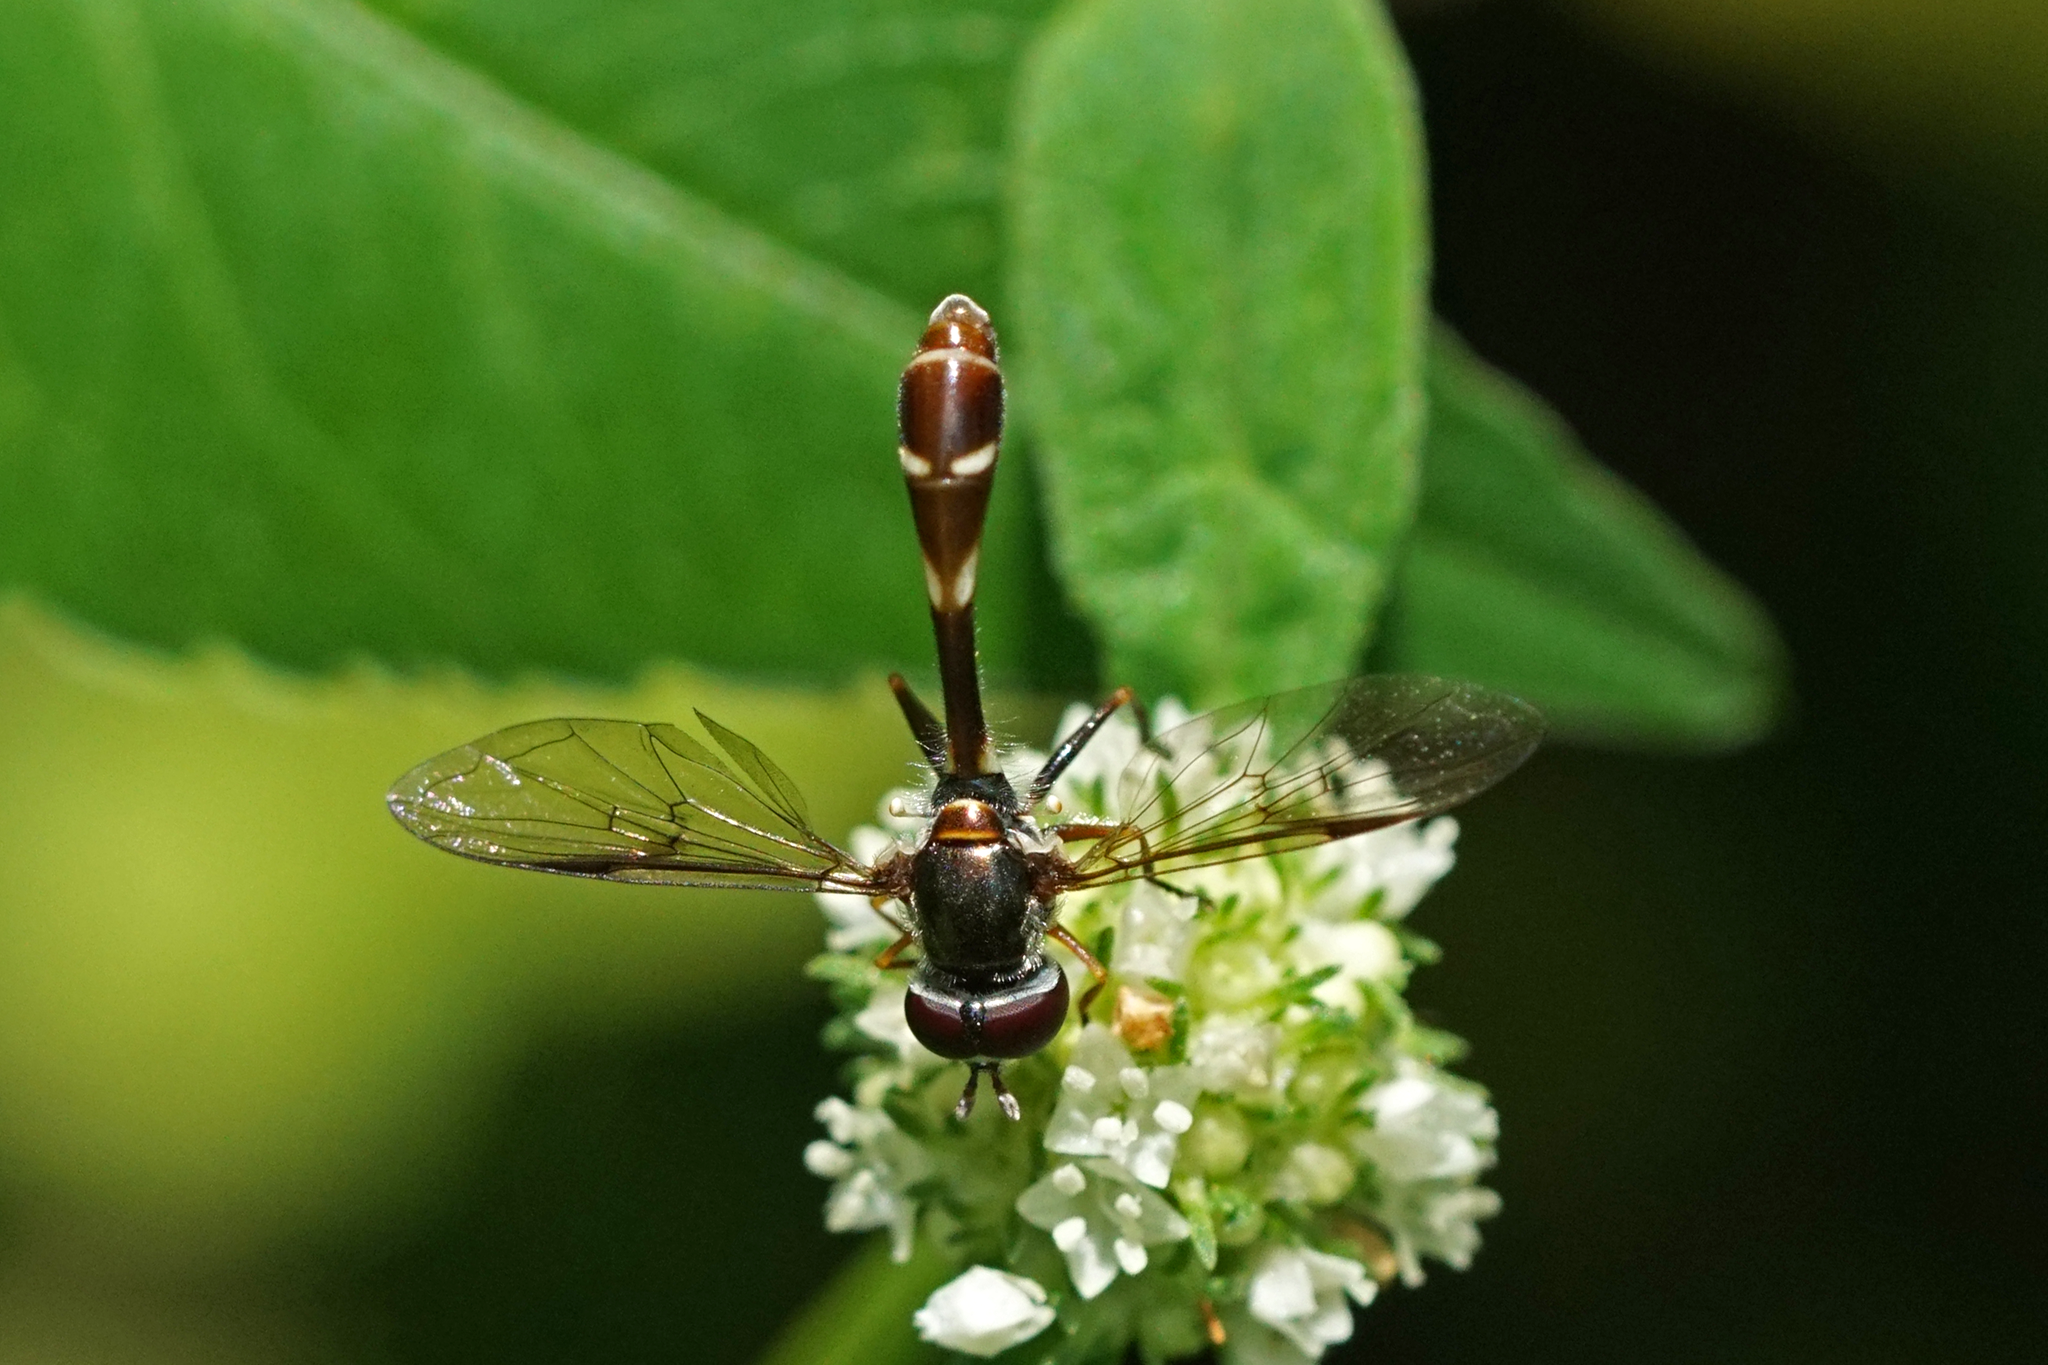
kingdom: Animalia
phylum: Arthropoda
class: Insecta
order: Diptera
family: Syrphidae
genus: Dioprosopa
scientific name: Dioprosopa clavatus
